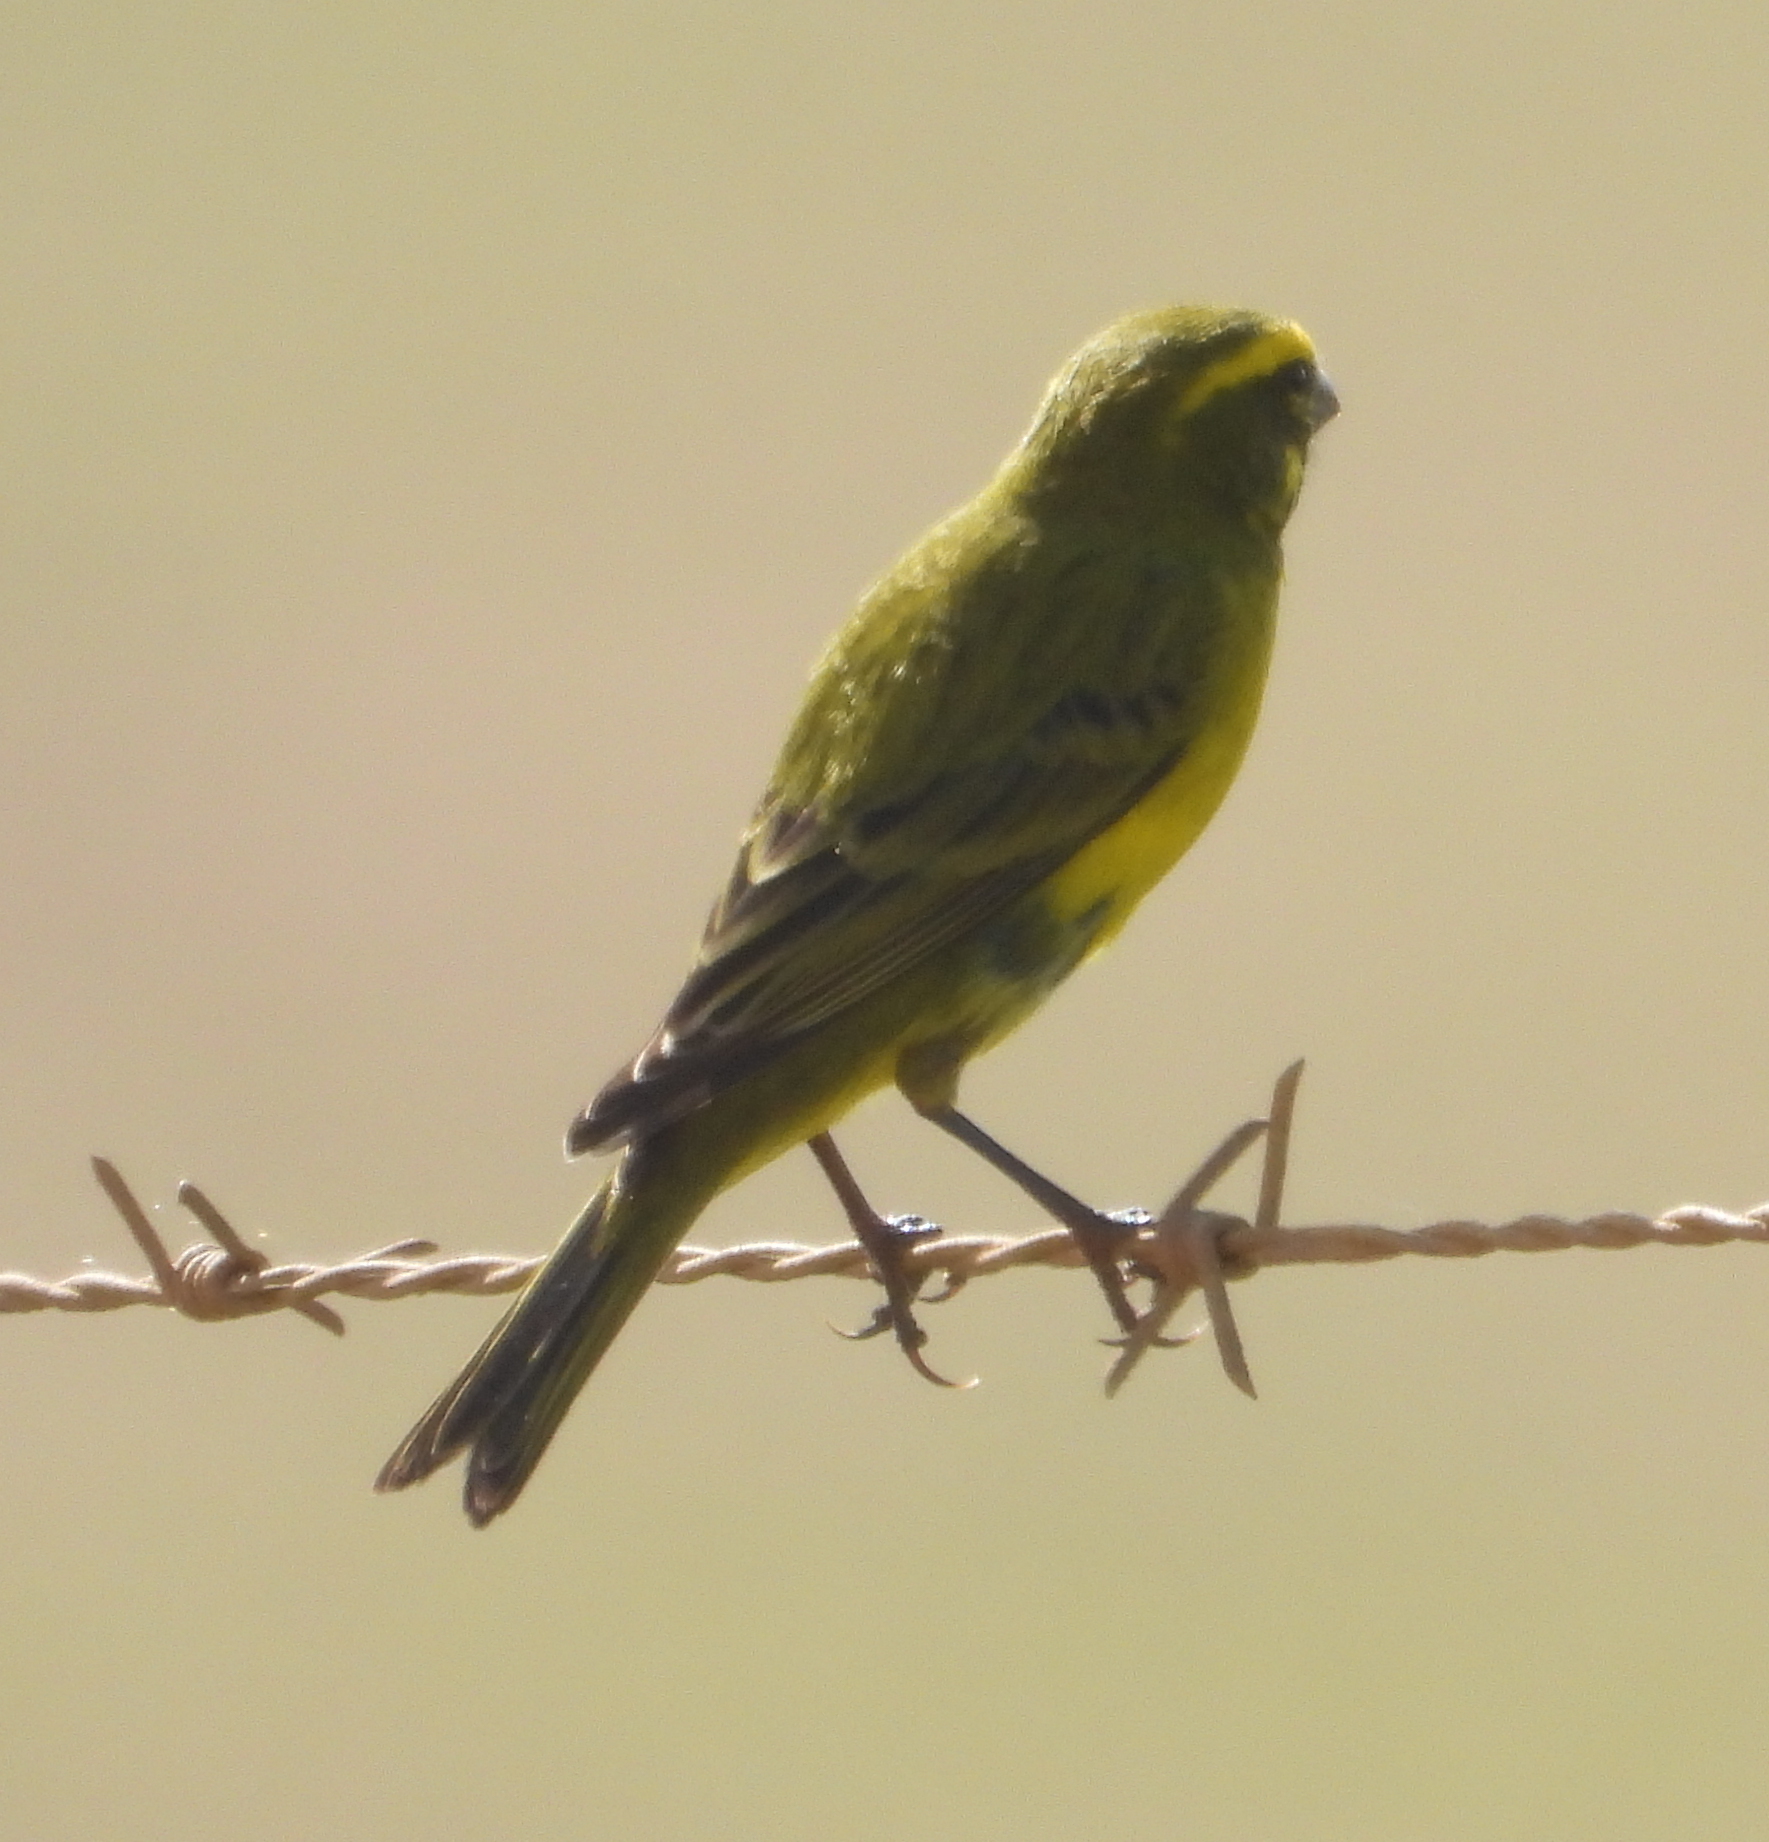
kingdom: Animalia
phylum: Chordata
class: Aves
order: Passeriformes
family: Fringillidae
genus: Crithagra
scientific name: Crithagra flaviventris
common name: Yellow canary
